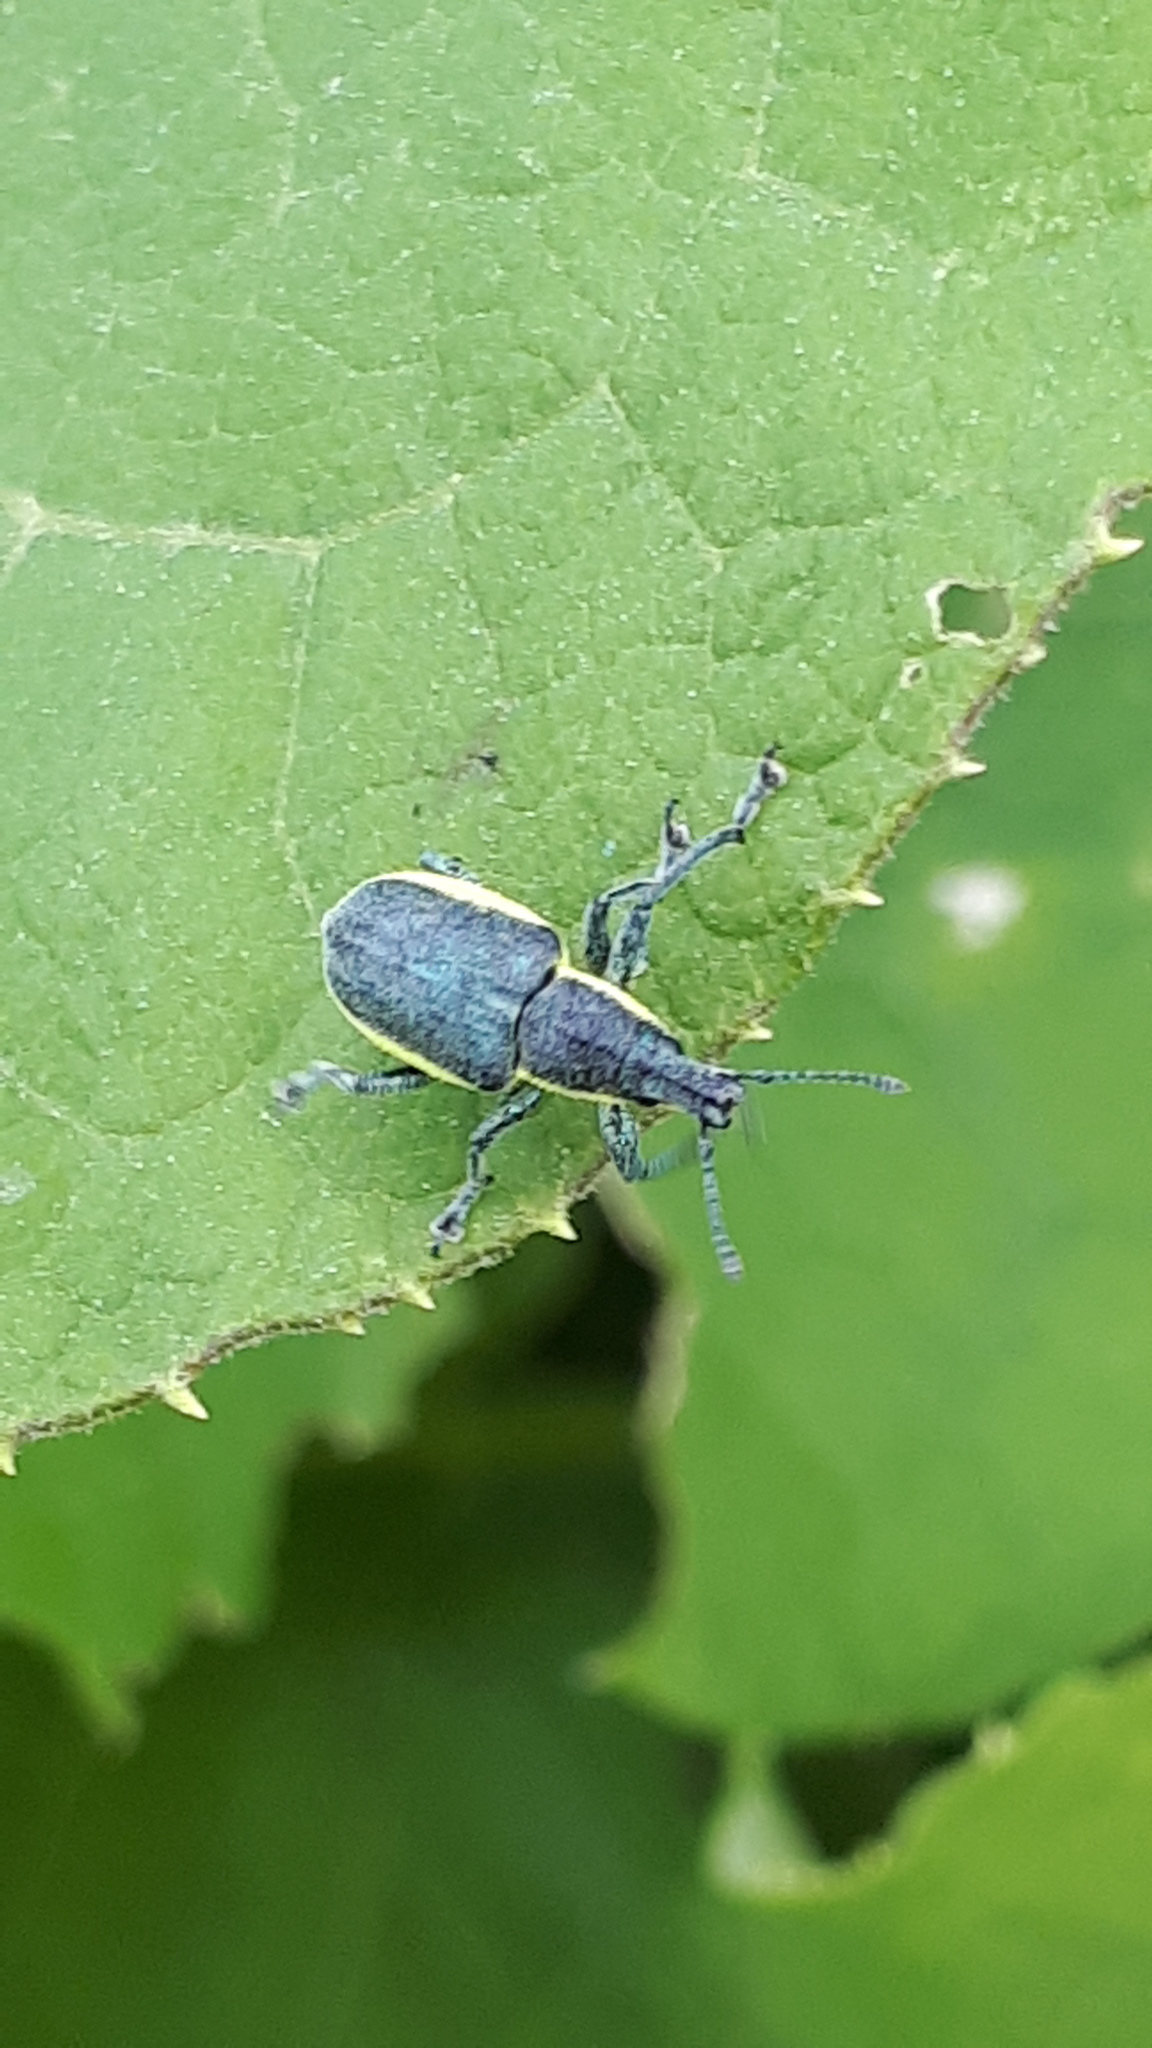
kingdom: Animalia
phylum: Arthropoda
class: Insecta
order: Coleoptera
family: Curculionidae
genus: Chlorophanus
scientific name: Chlorophanus viridis
